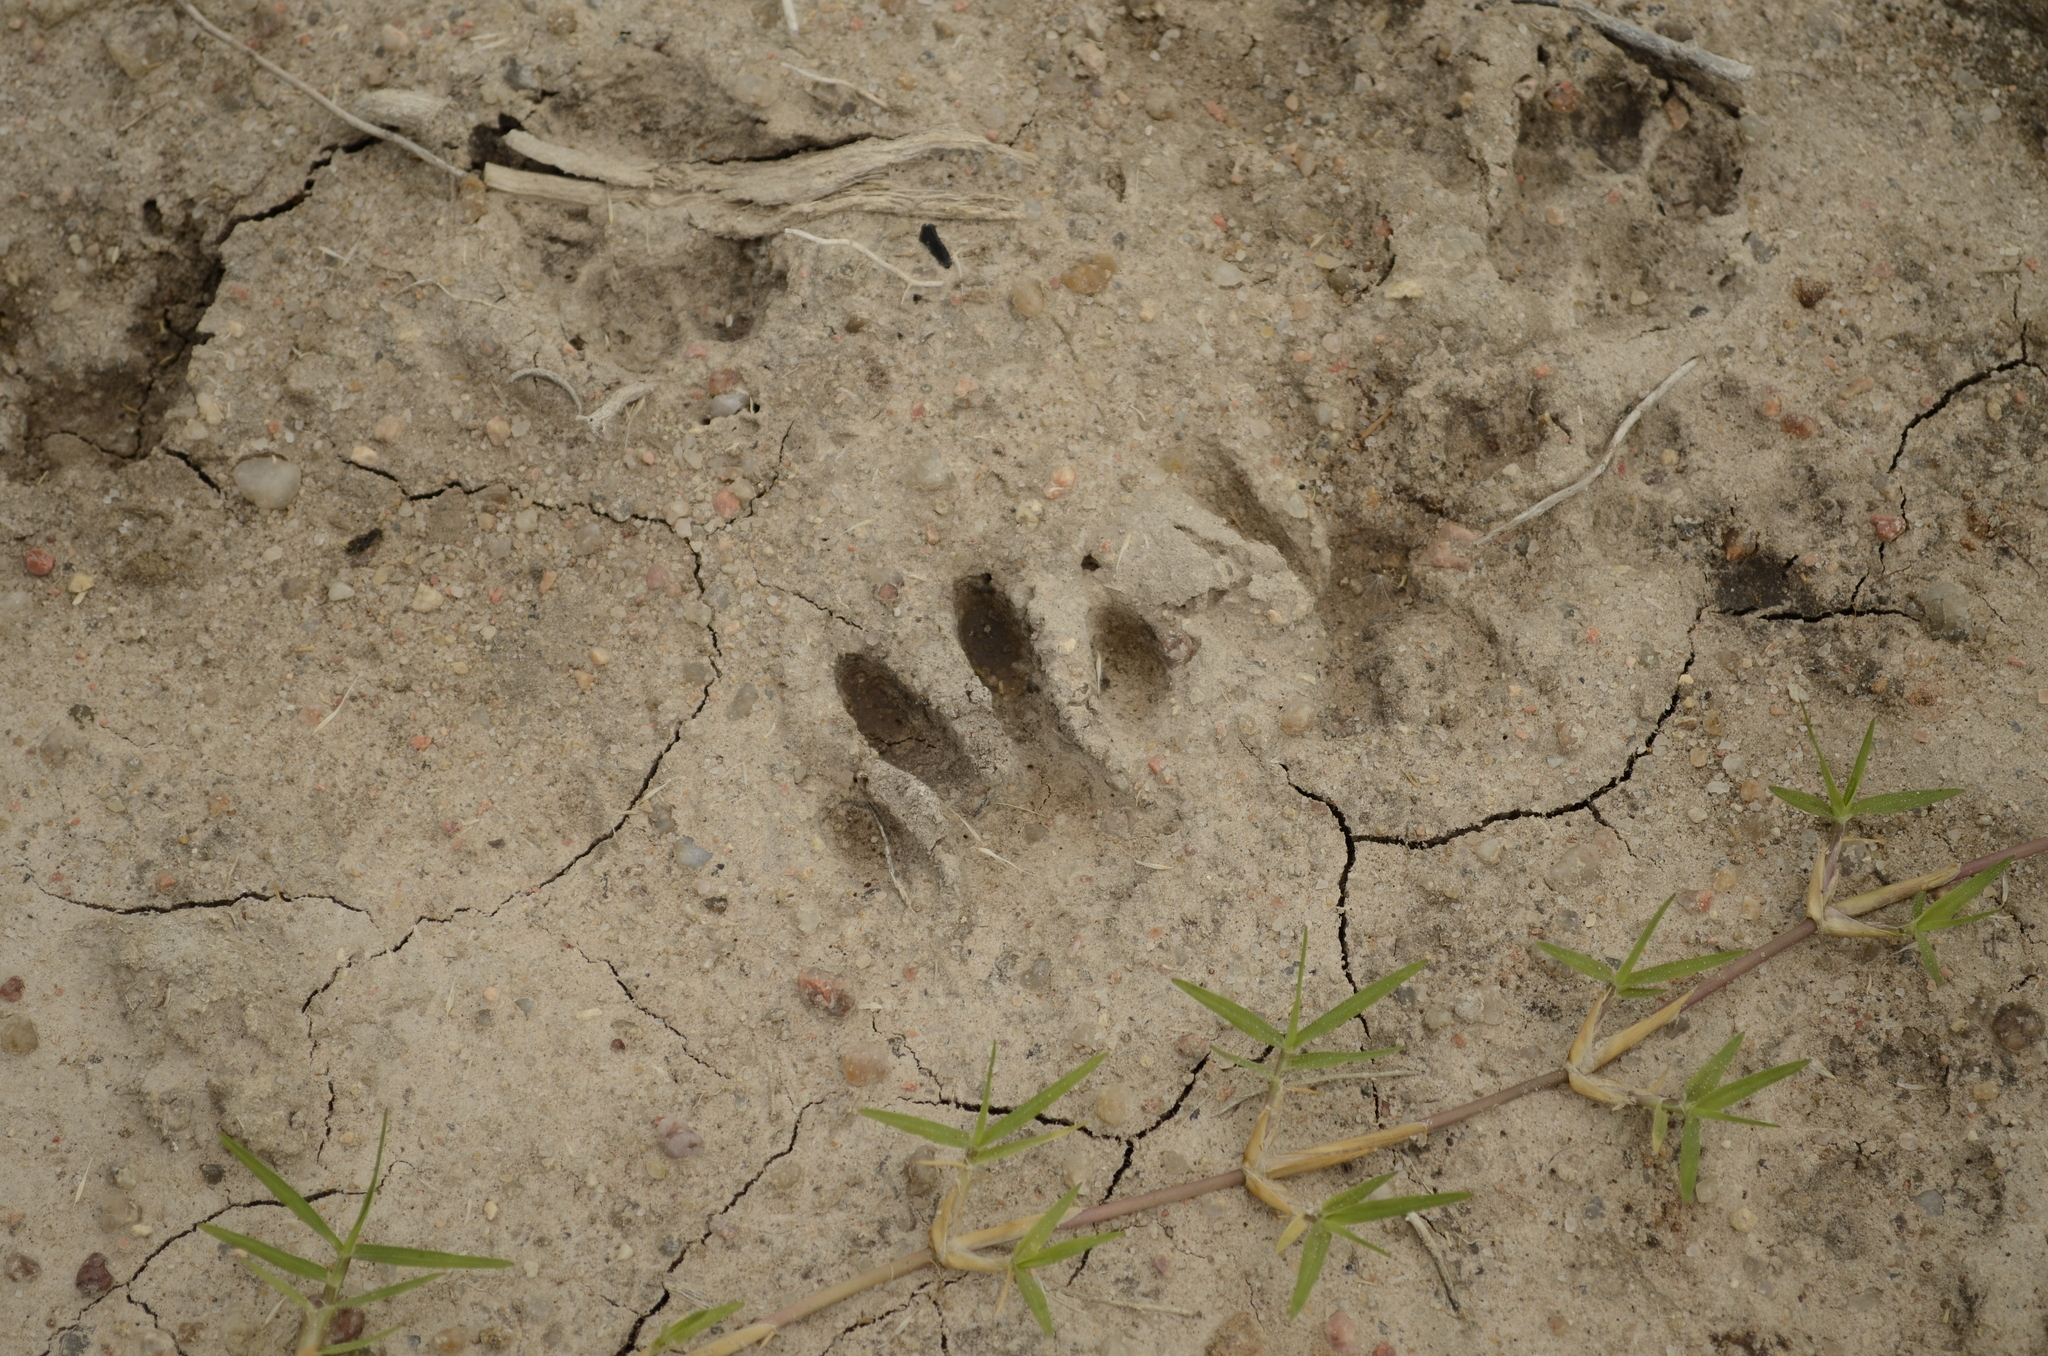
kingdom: Animalia
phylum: Chordata
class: Mammalia
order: Carnivora
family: Procyonidae
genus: Procyon
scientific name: Procyon cancrivorus
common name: Crab-eating raccoon
